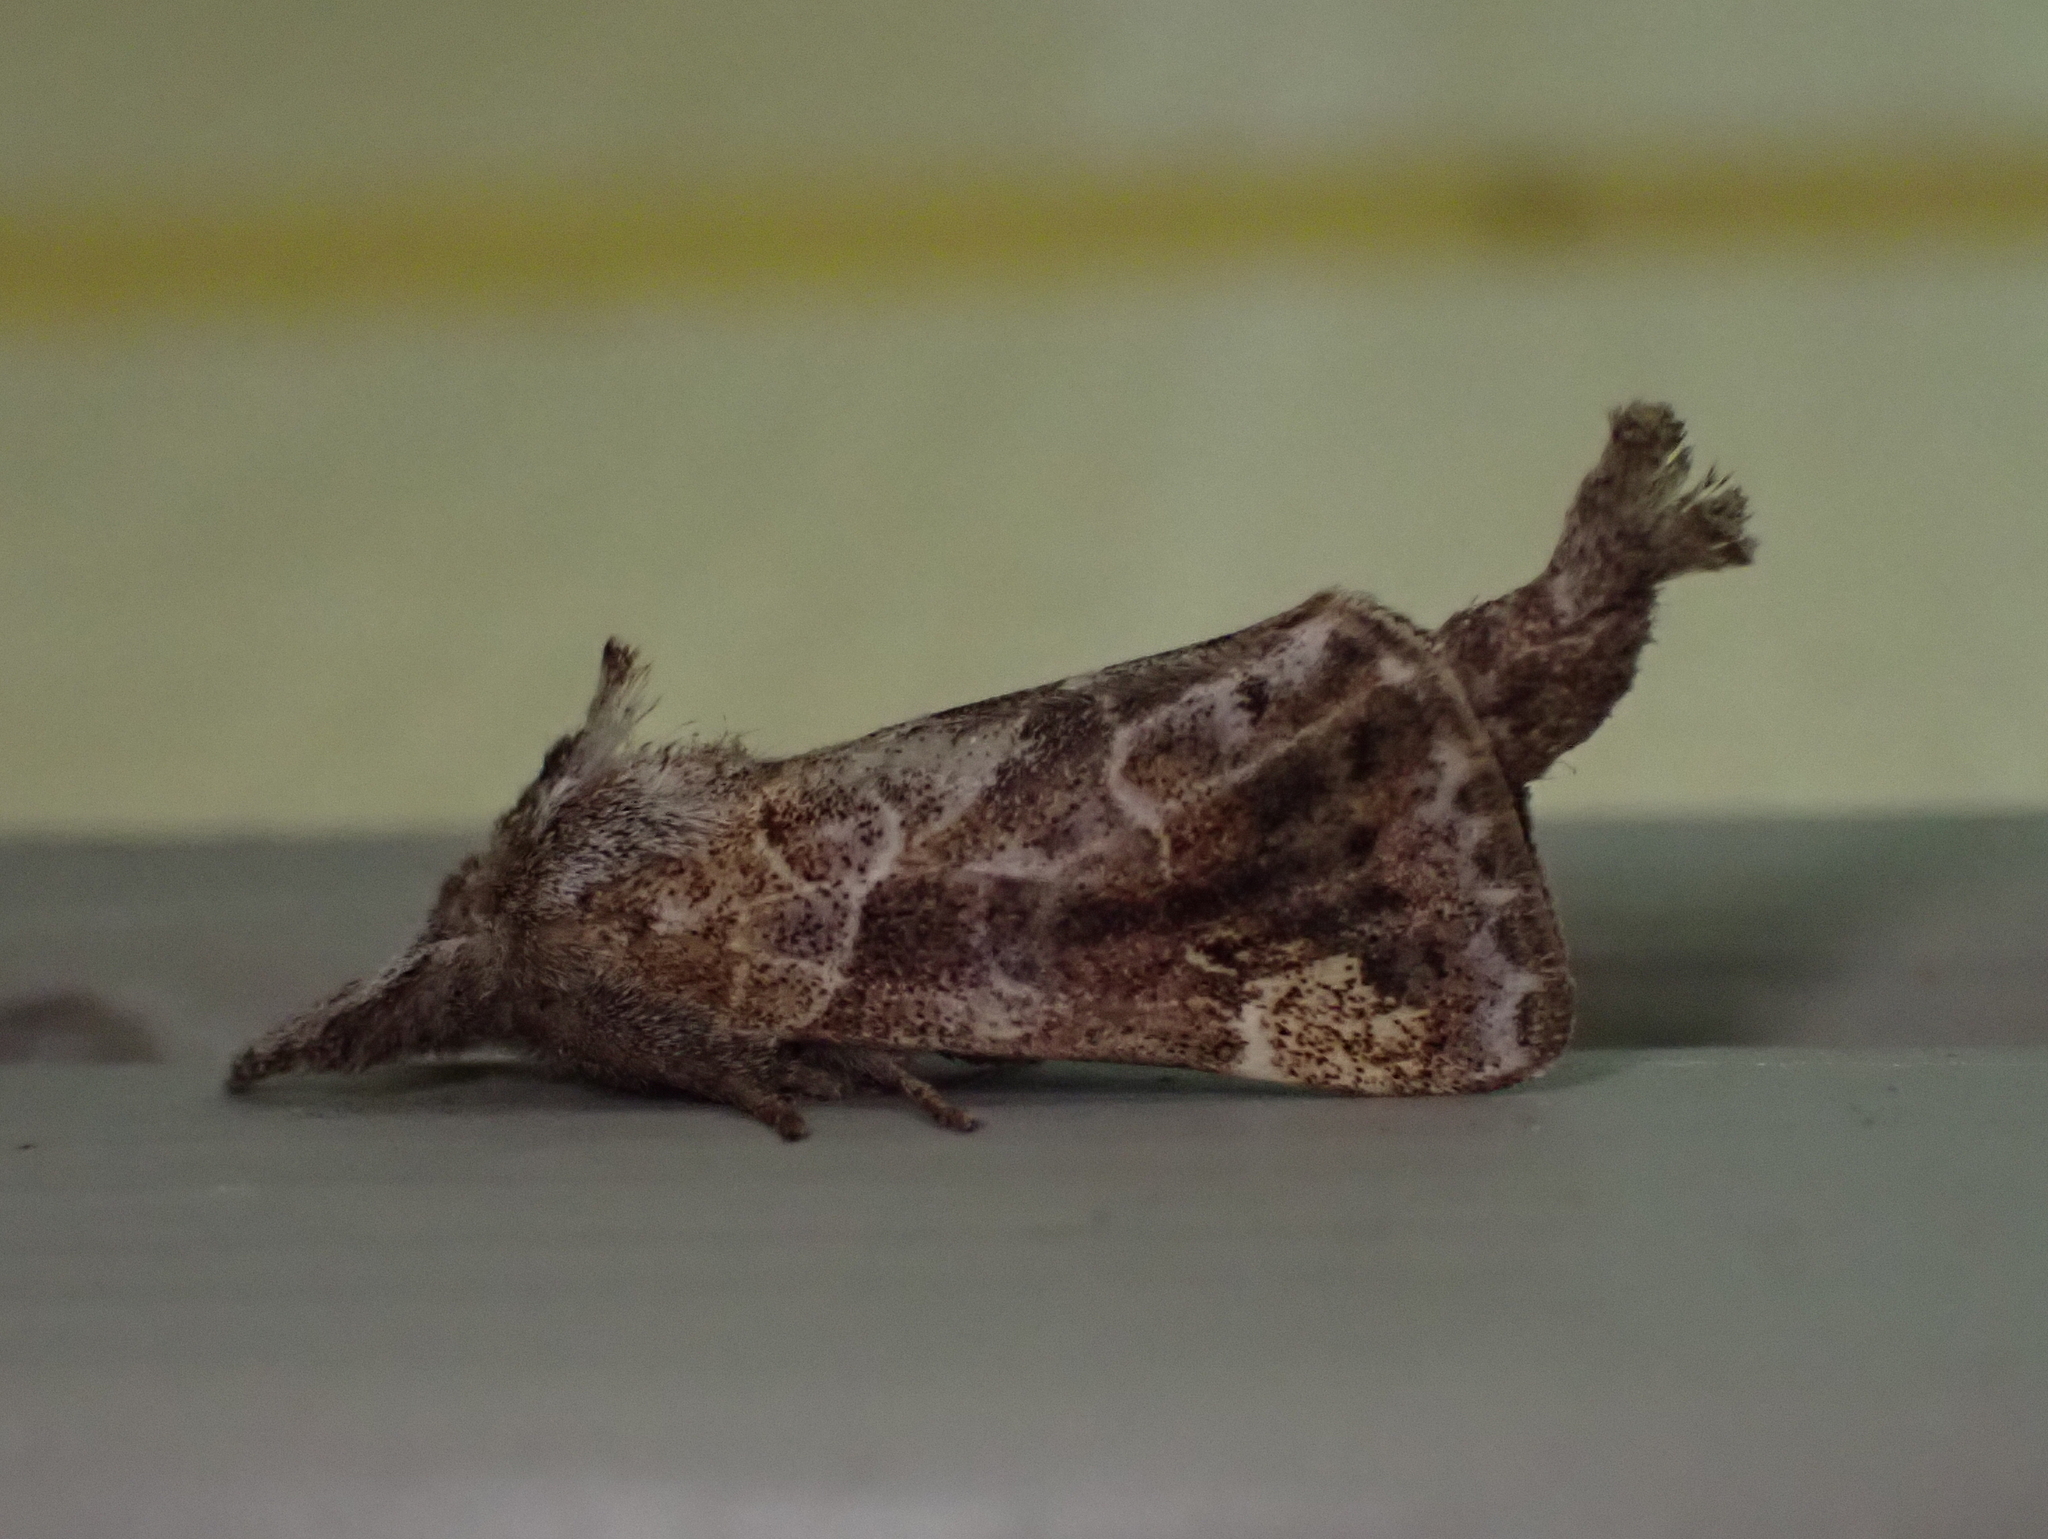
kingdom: Animalia
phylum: Arthropoda
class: Insecta
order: Lepidoptera
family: Notodontidae
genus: Clostera
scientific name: Clostera strigosa
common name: Striped chocolate-tip moth
